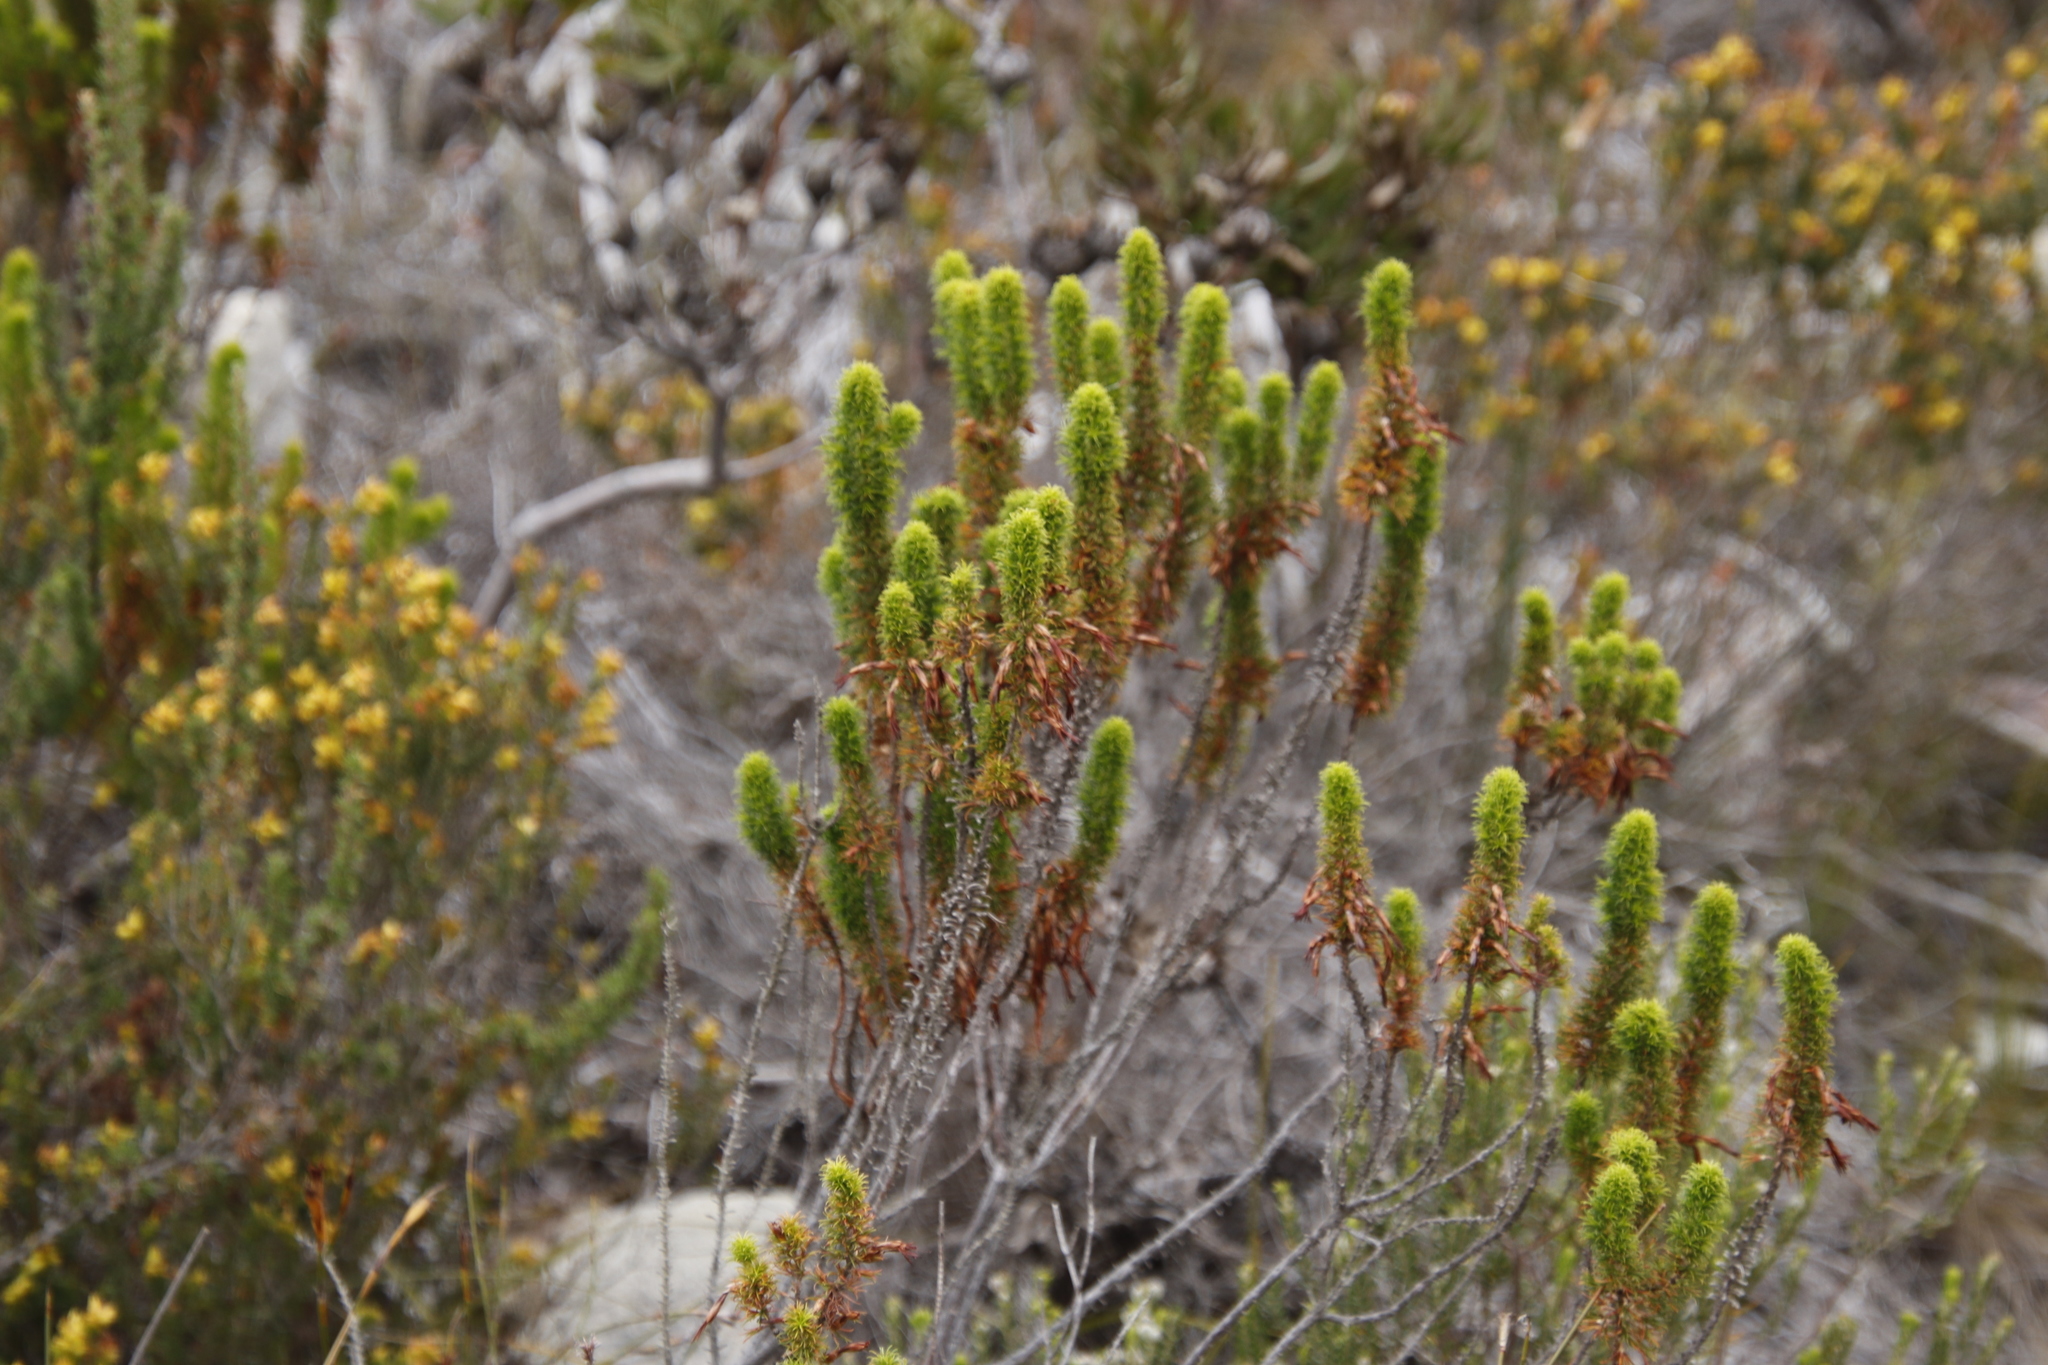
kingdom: Plantae
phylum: Tracheophyta
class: Magnoliopsida
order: Ericales
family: Ericaceae
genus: Erica
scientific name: Erica coccinea
